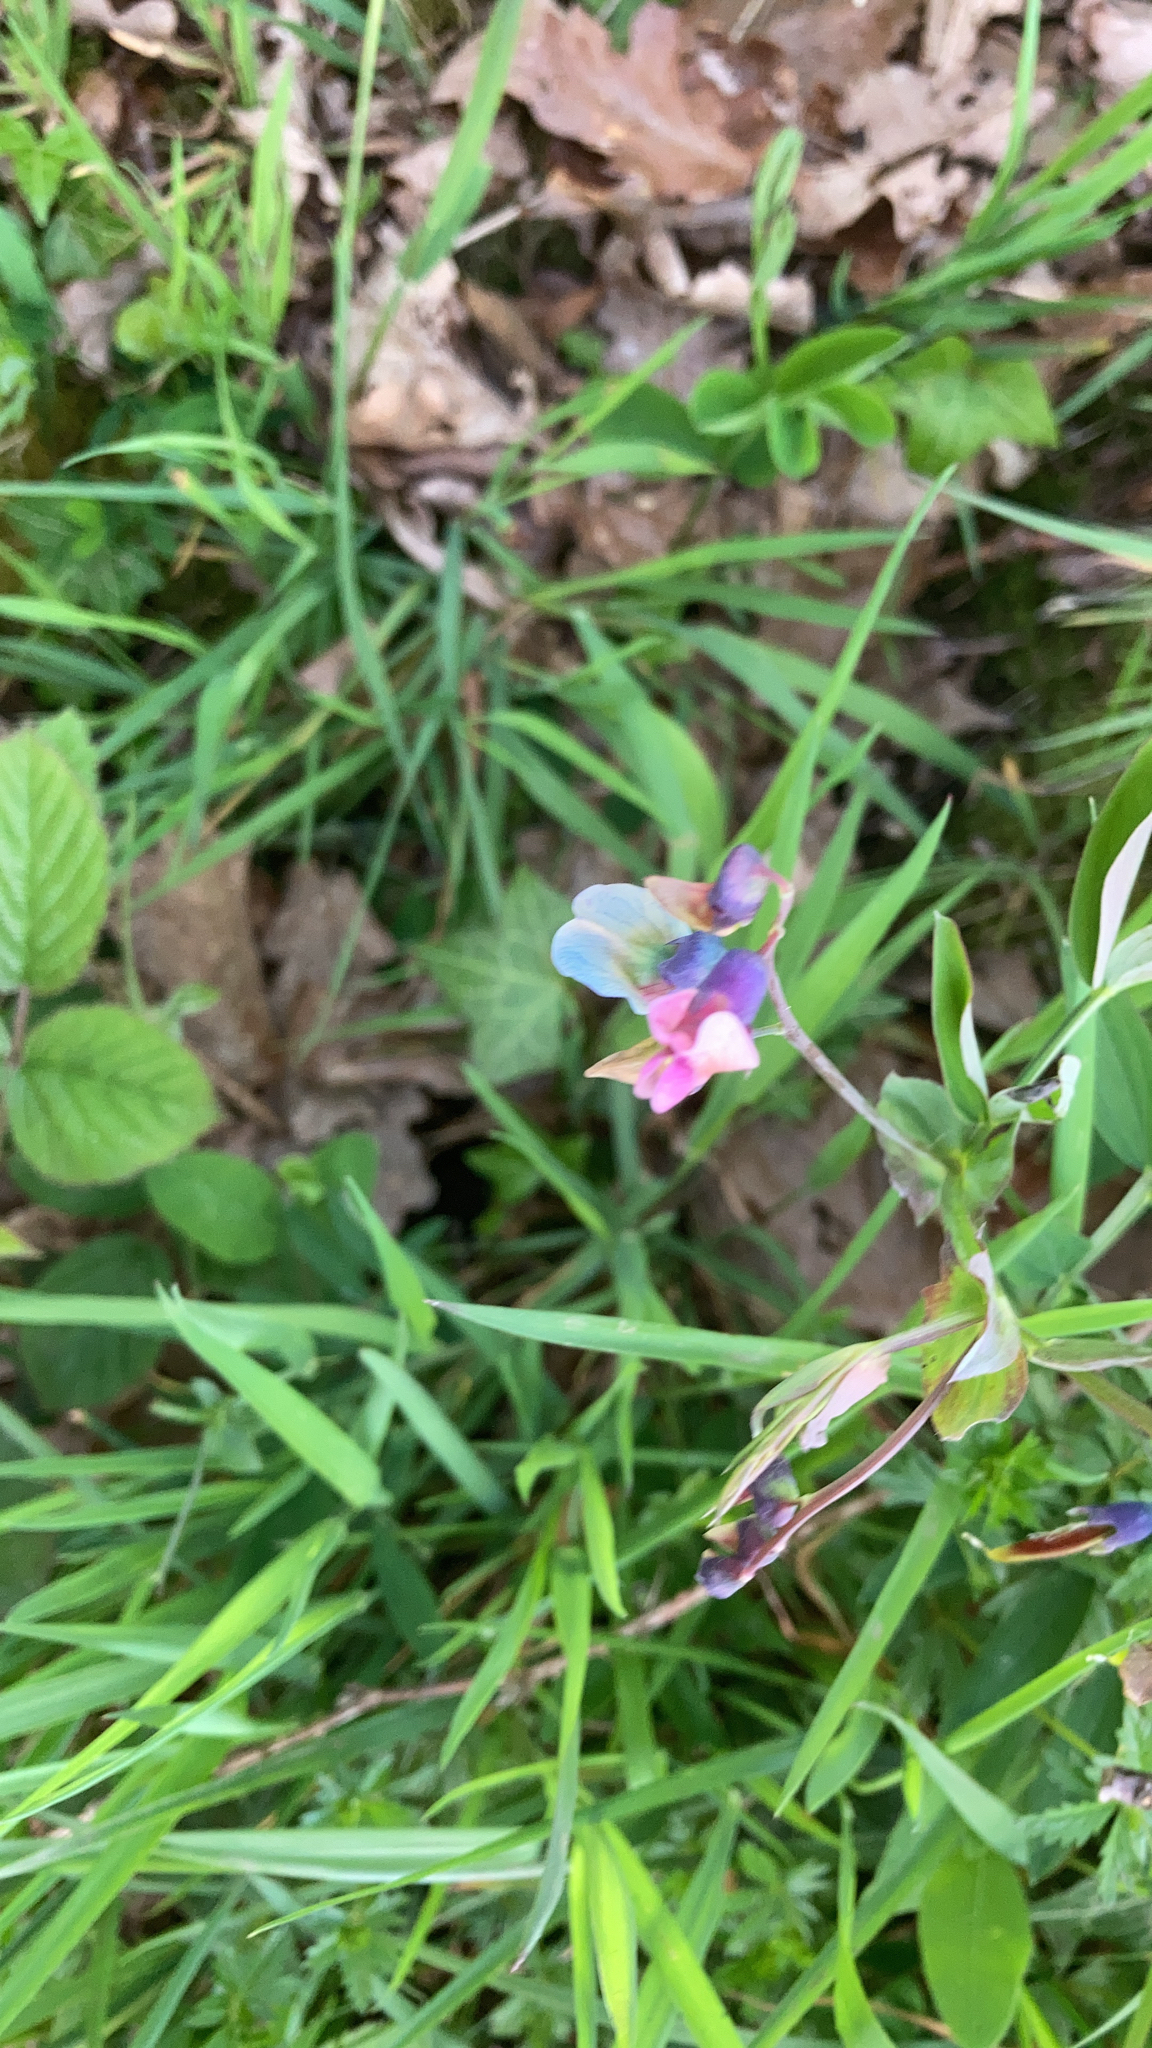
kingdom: Plantae
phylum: Tracheophyta
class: Magnoliopsida
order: Fabales
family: Fabaceae
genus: Lathyrus
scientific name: Lathyrus linifolius
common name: Bitter-vetch
